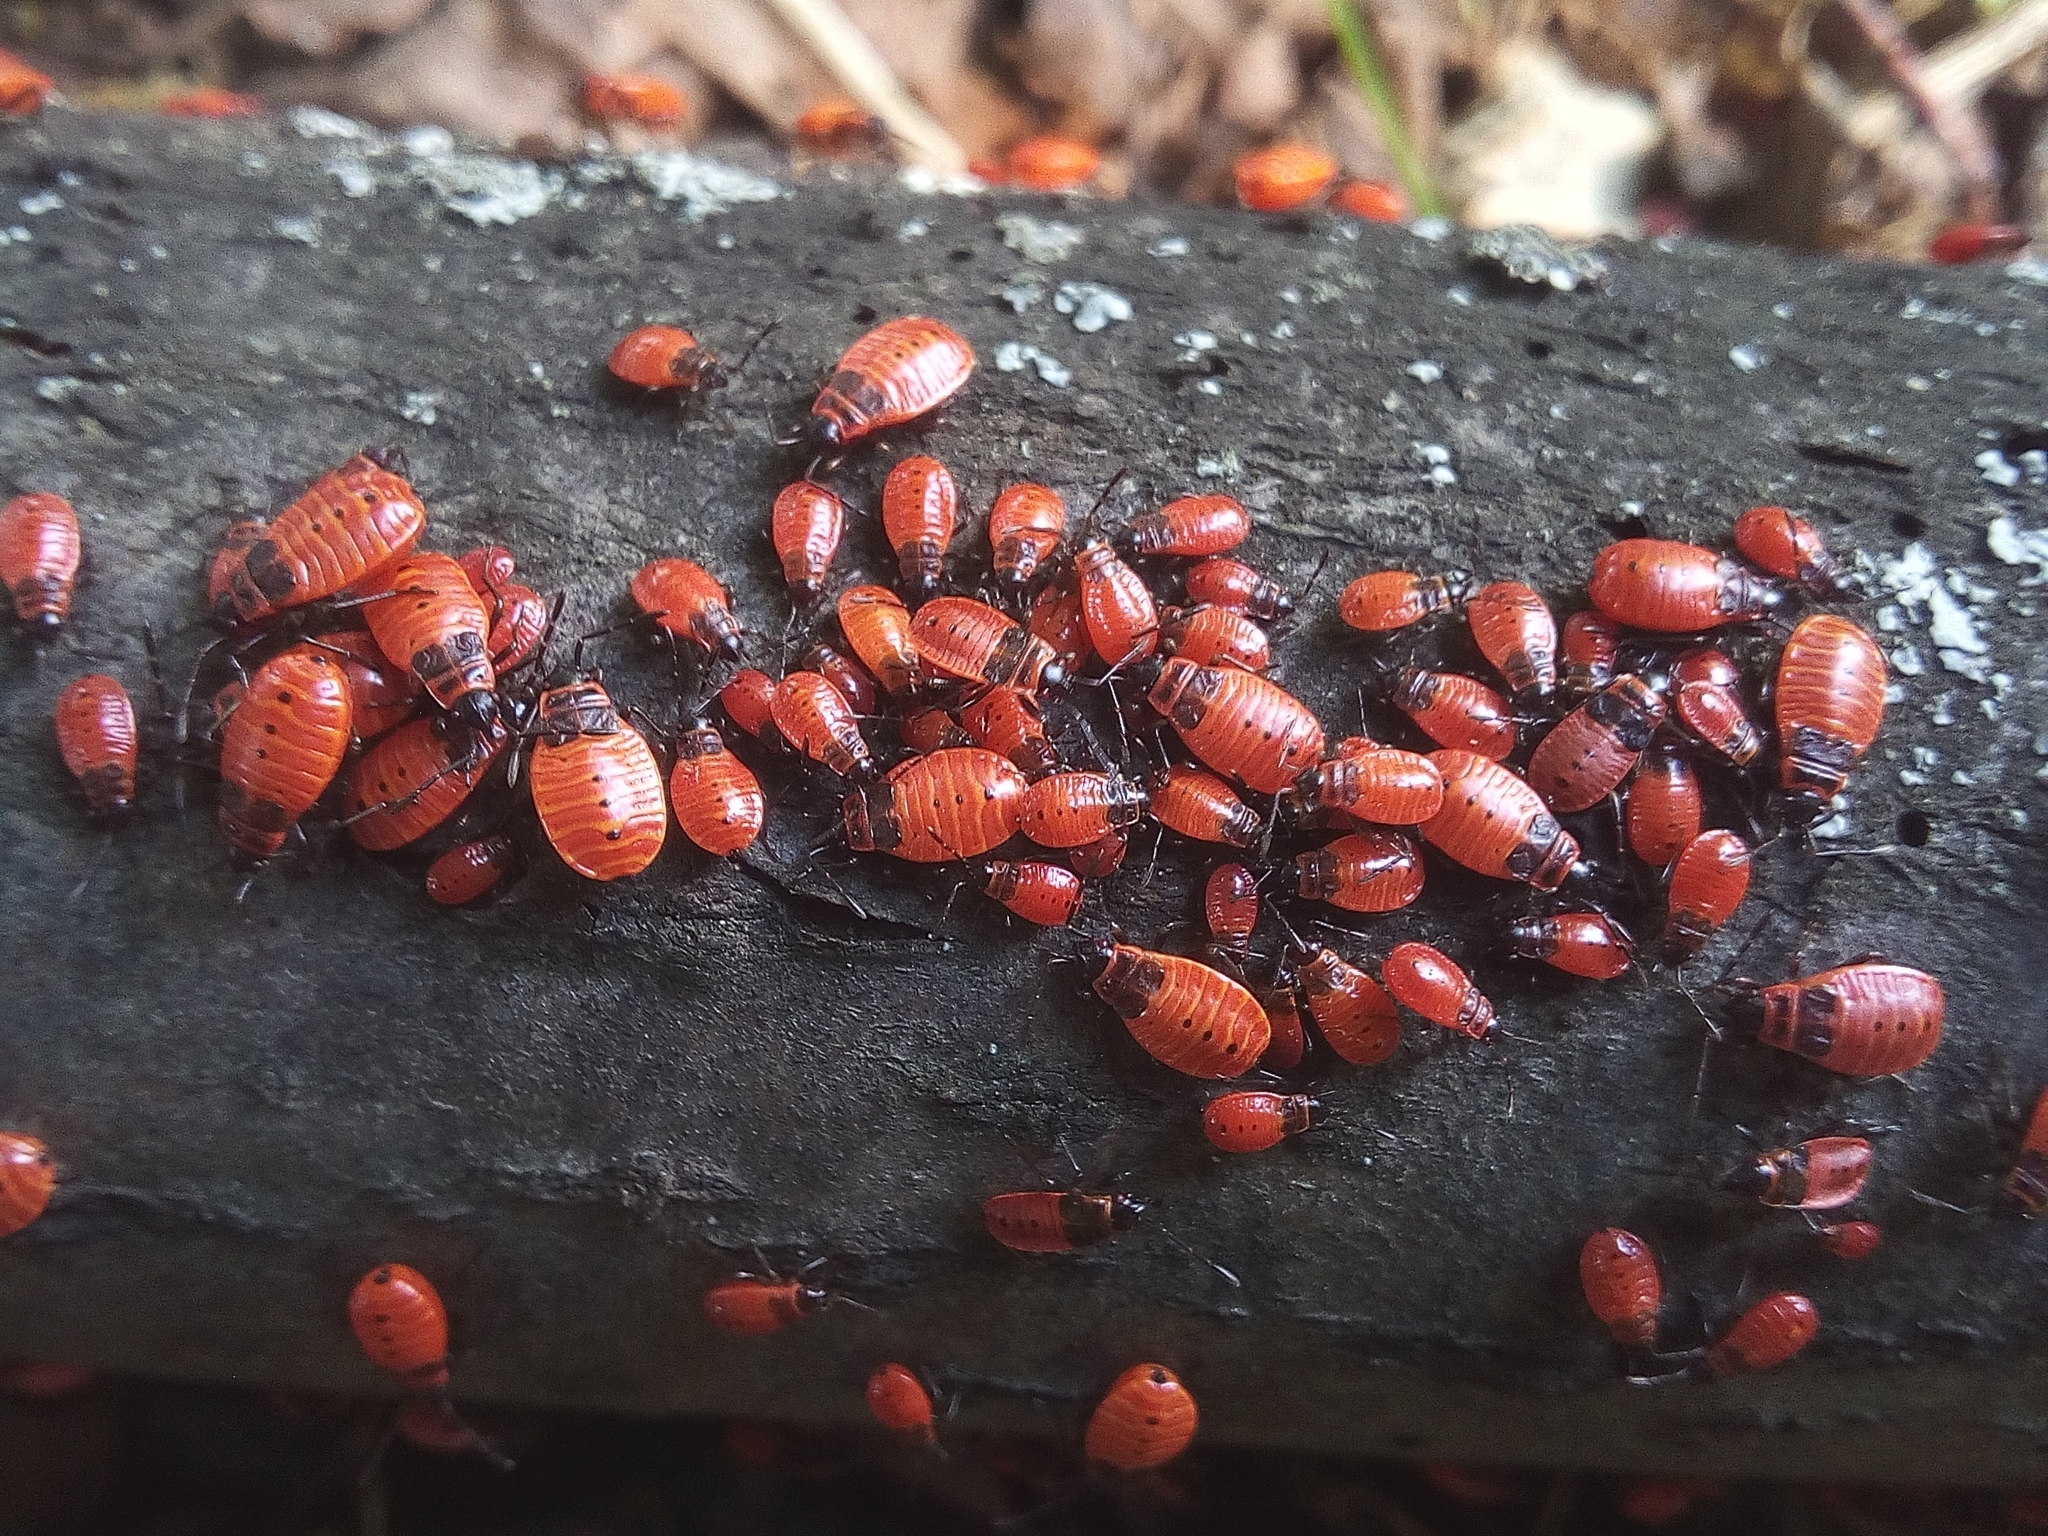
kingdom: Animalia
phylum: Arthropoda
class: Insecta
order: Hemiptera
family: Pyrrhocoridae
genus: Pyrrhocoris
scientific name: Pyrrhocoris apterus
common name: Firebug
